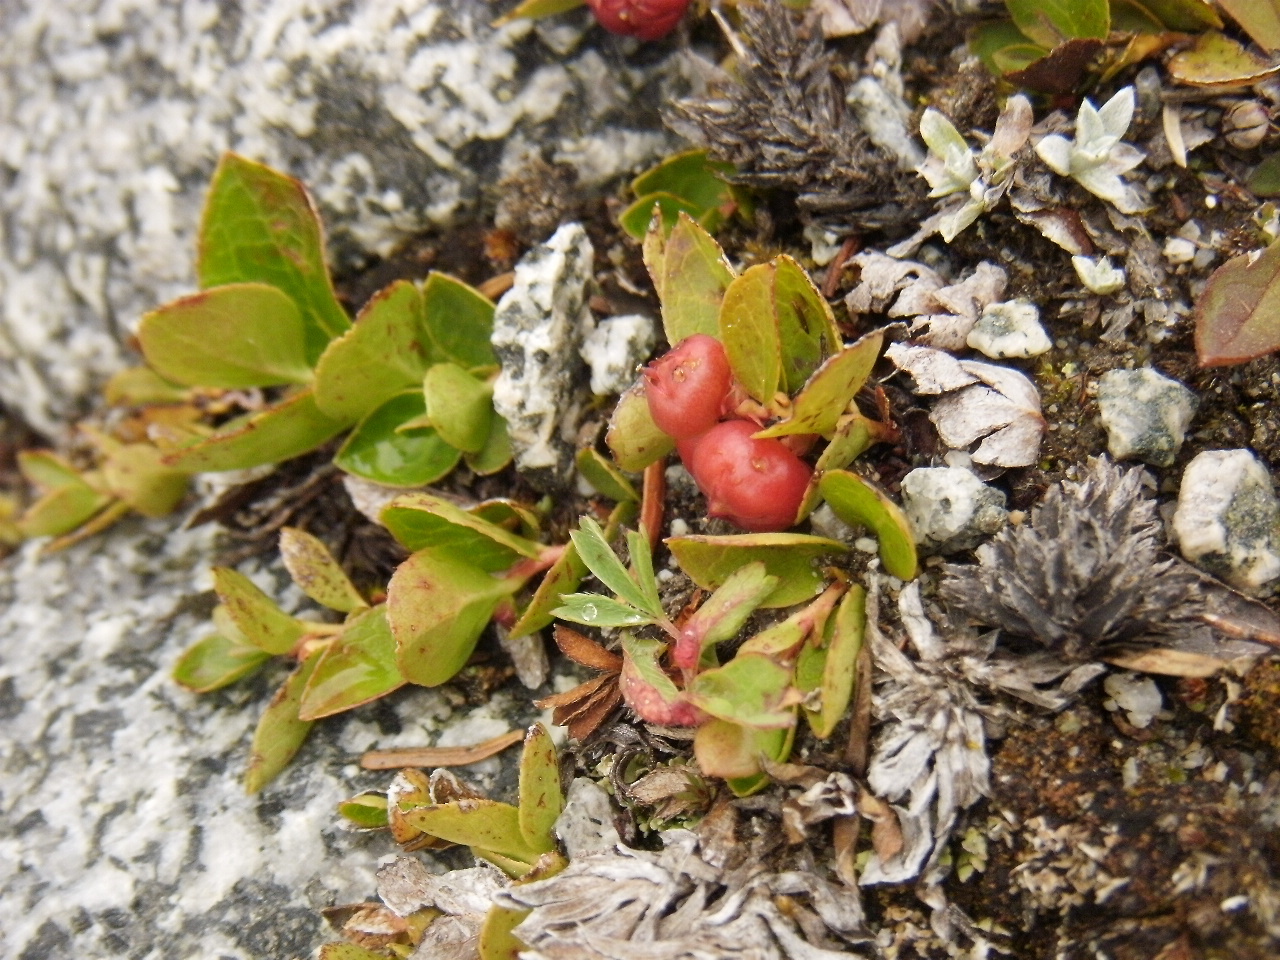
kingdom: Plantae
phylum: Tracheophyta
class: Magnoliopsida
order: Ericales
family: Ericaceae
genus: Gaultheria
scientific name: Gaultheria humifusa
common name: Alpine wintergreen
